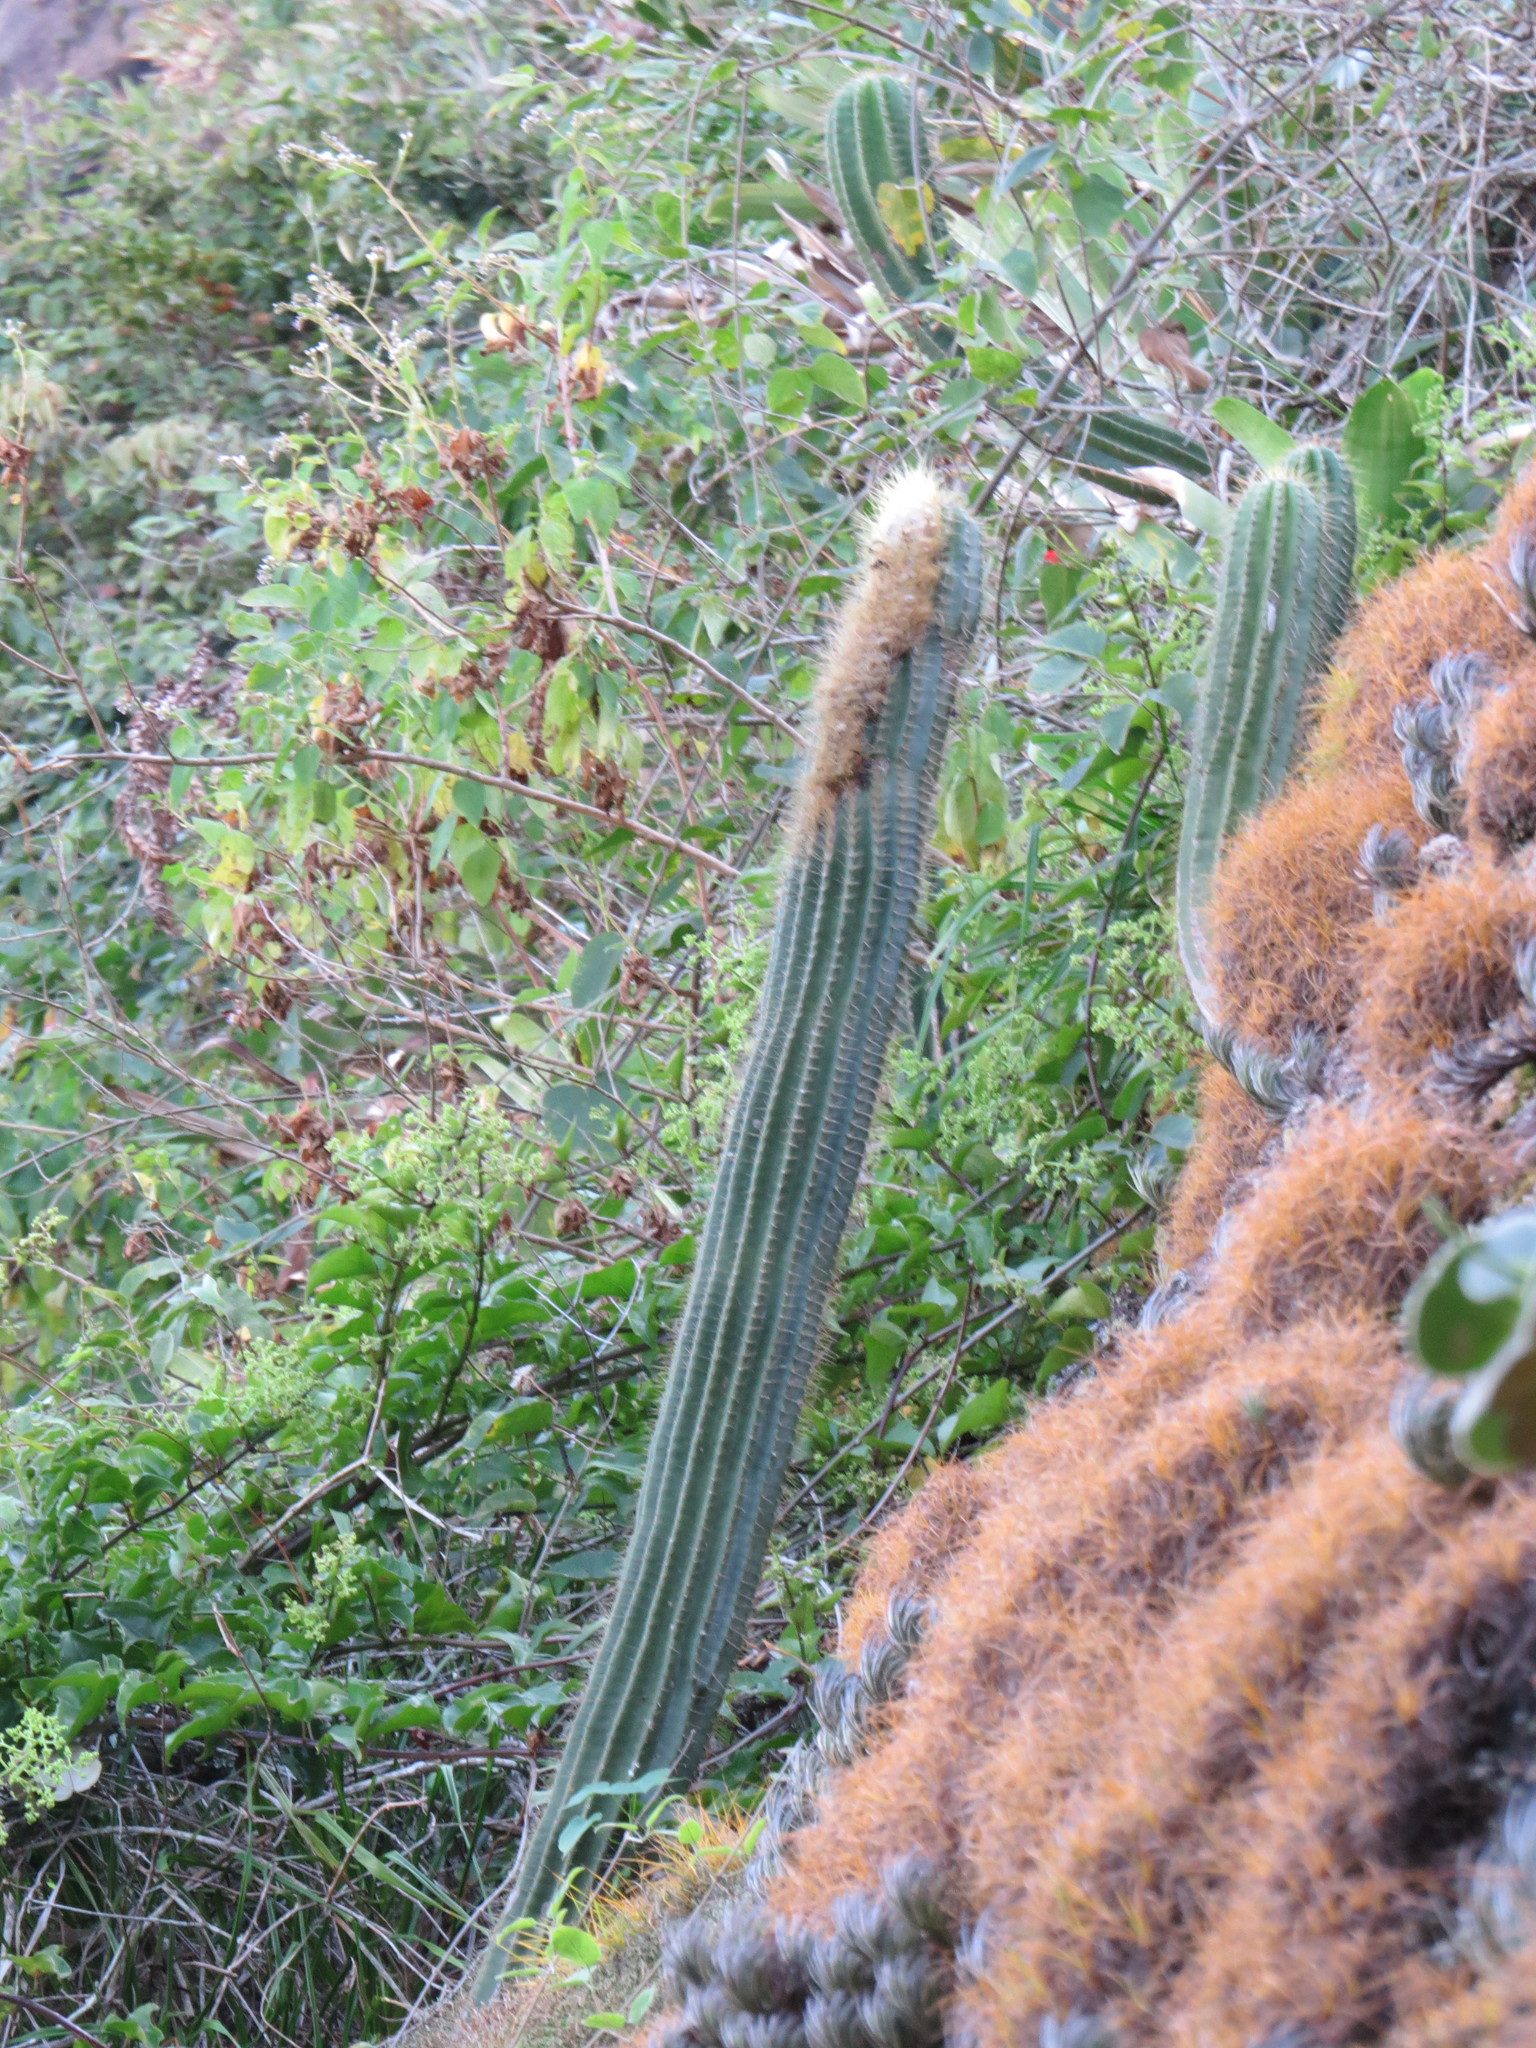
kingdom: Plantae
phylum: Tracheophyta
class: Magnoliopsida
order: Caryophyllales
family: Cactaceae
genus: Coleocephalocereus
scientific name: Coleocephalocereus fluminensis
